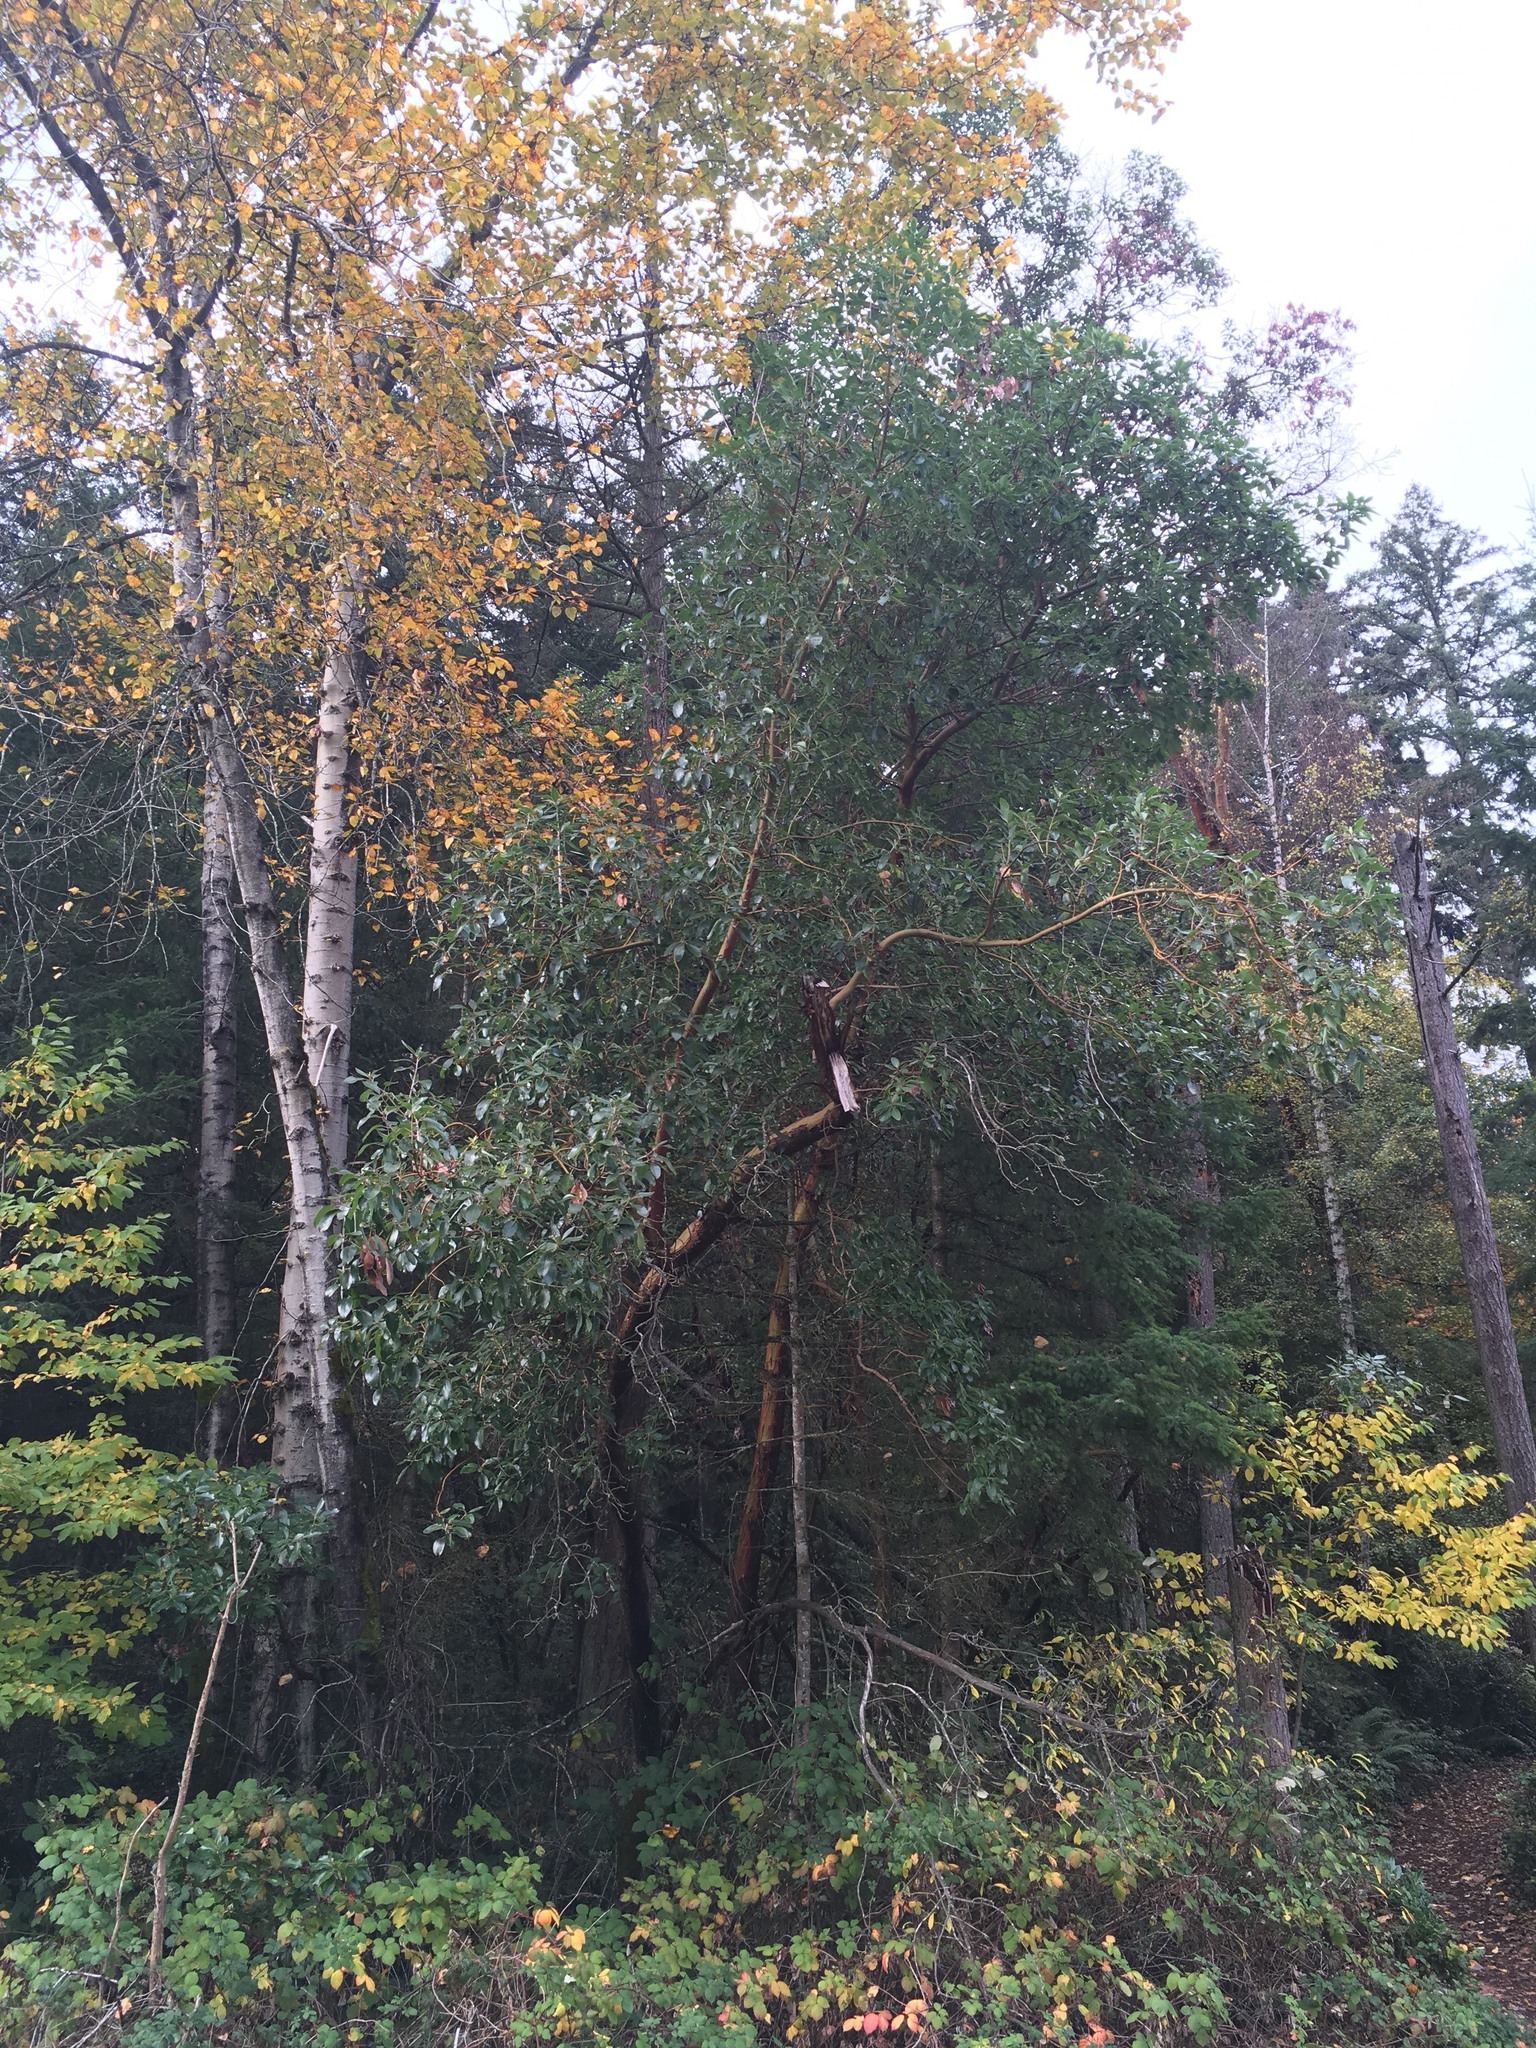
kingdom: Plantae
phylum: Tracheophyta
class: Magnoliopsida
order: Ericales
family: Ericaceae
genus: Arbutus
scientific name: Arbutus menziesii
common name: Pacific madrone
